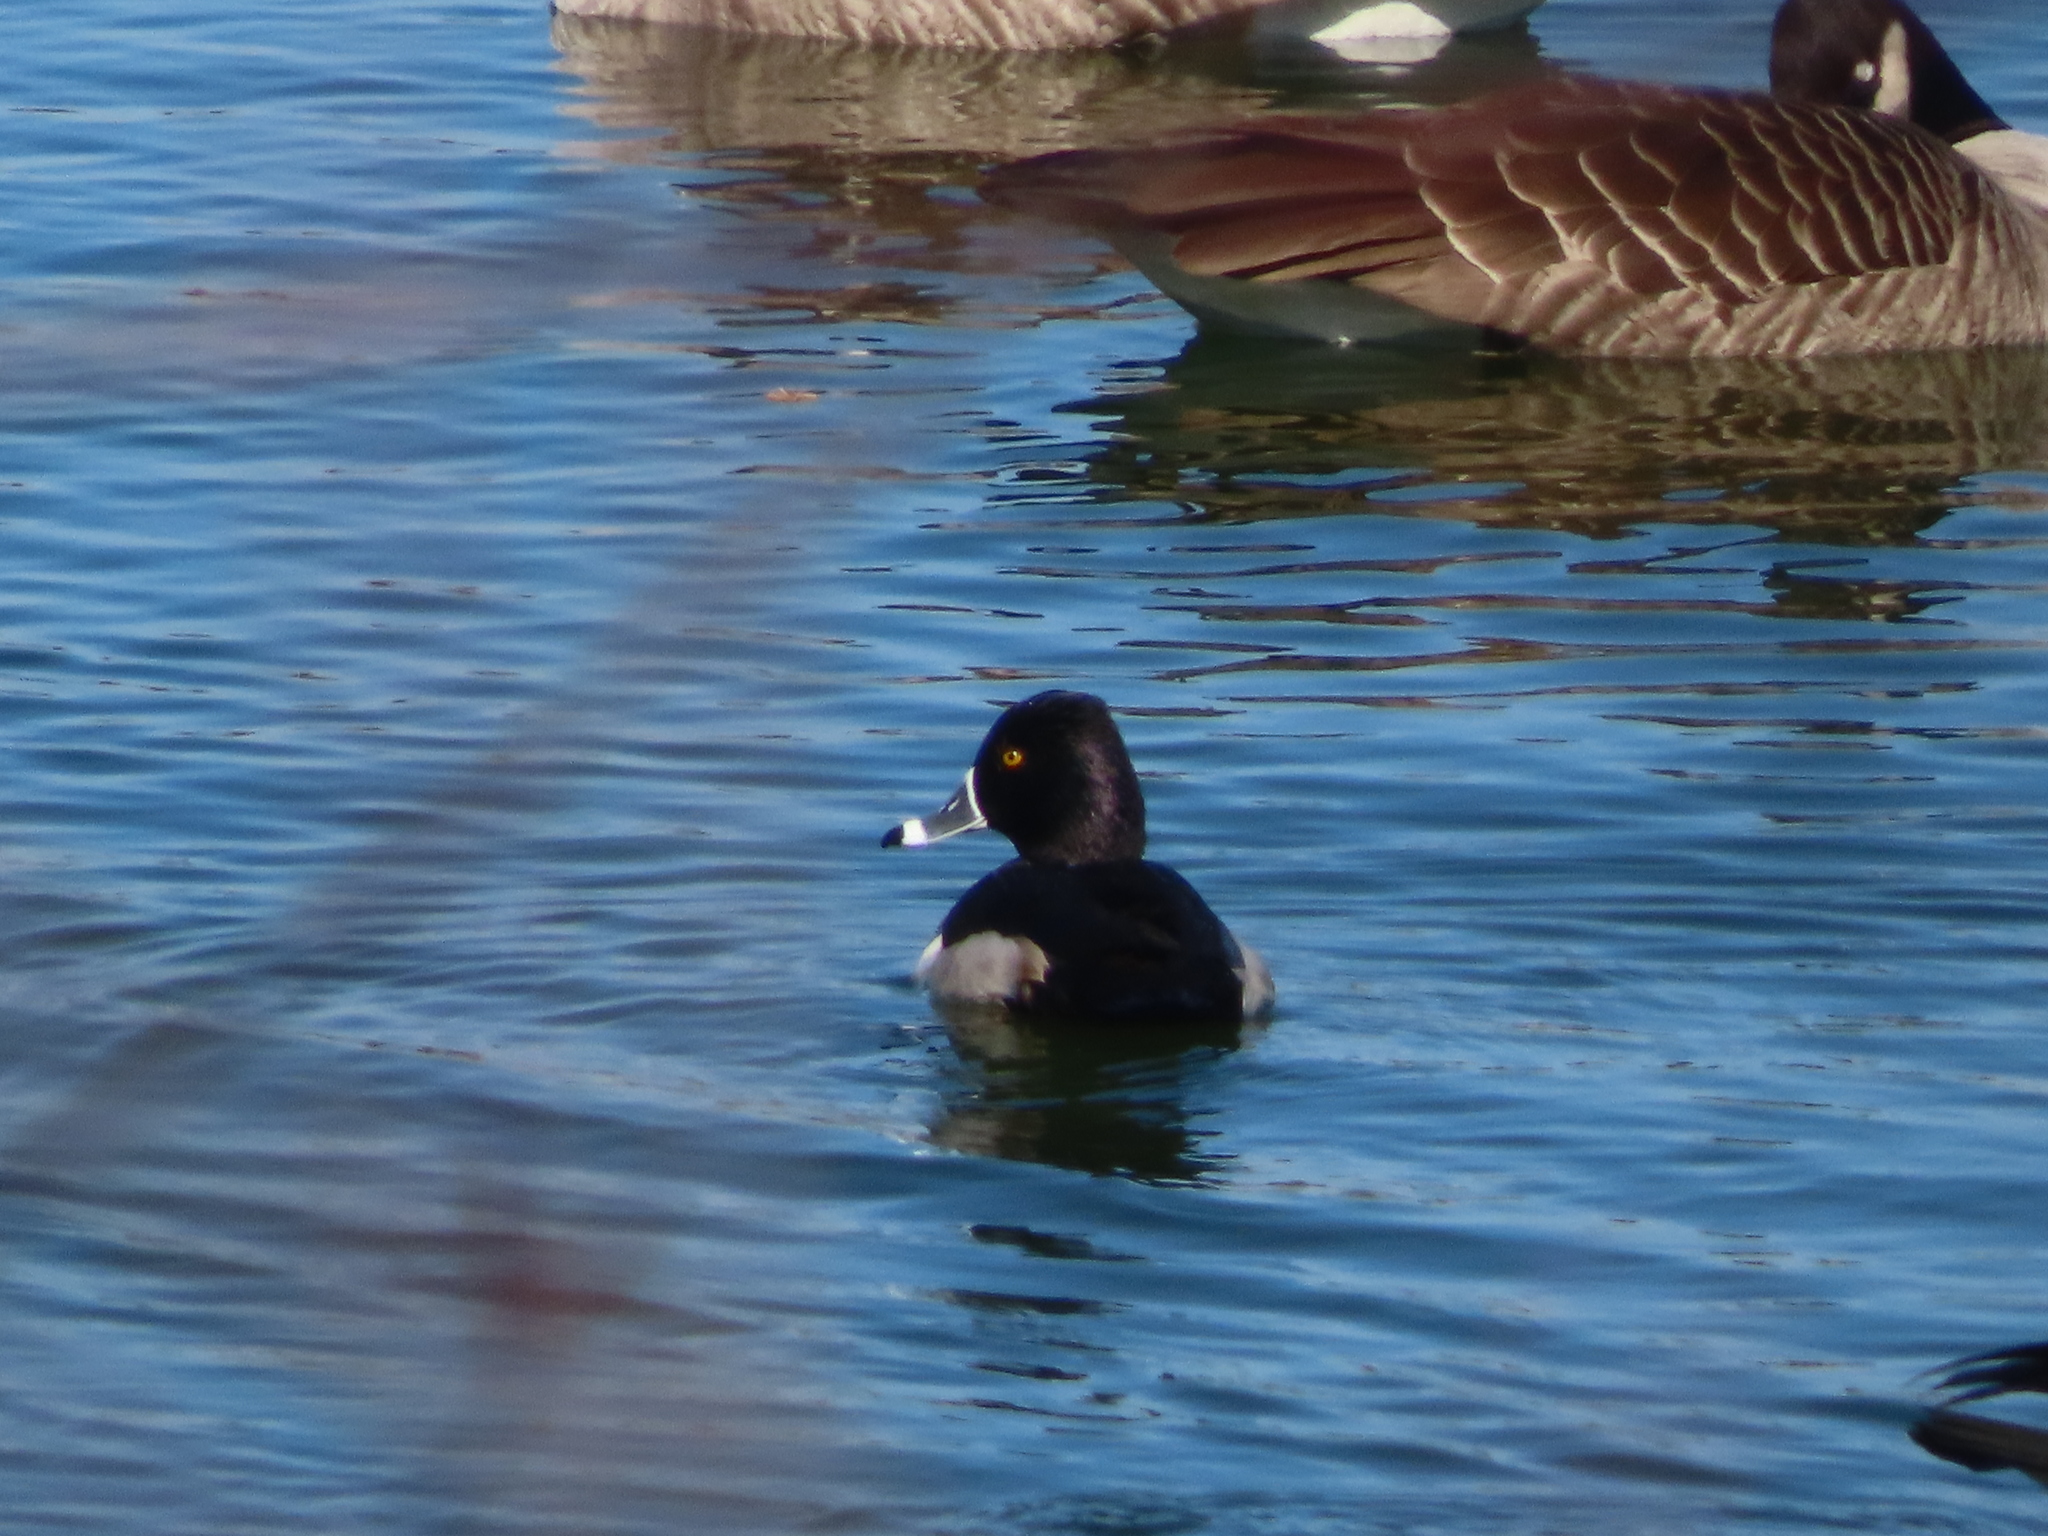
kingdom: Animalia
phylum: Chordata
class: Aves
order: Anseriformes
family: Anatidae
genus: Aythya
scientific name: Aythya collaris
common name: Ring-necked duck
